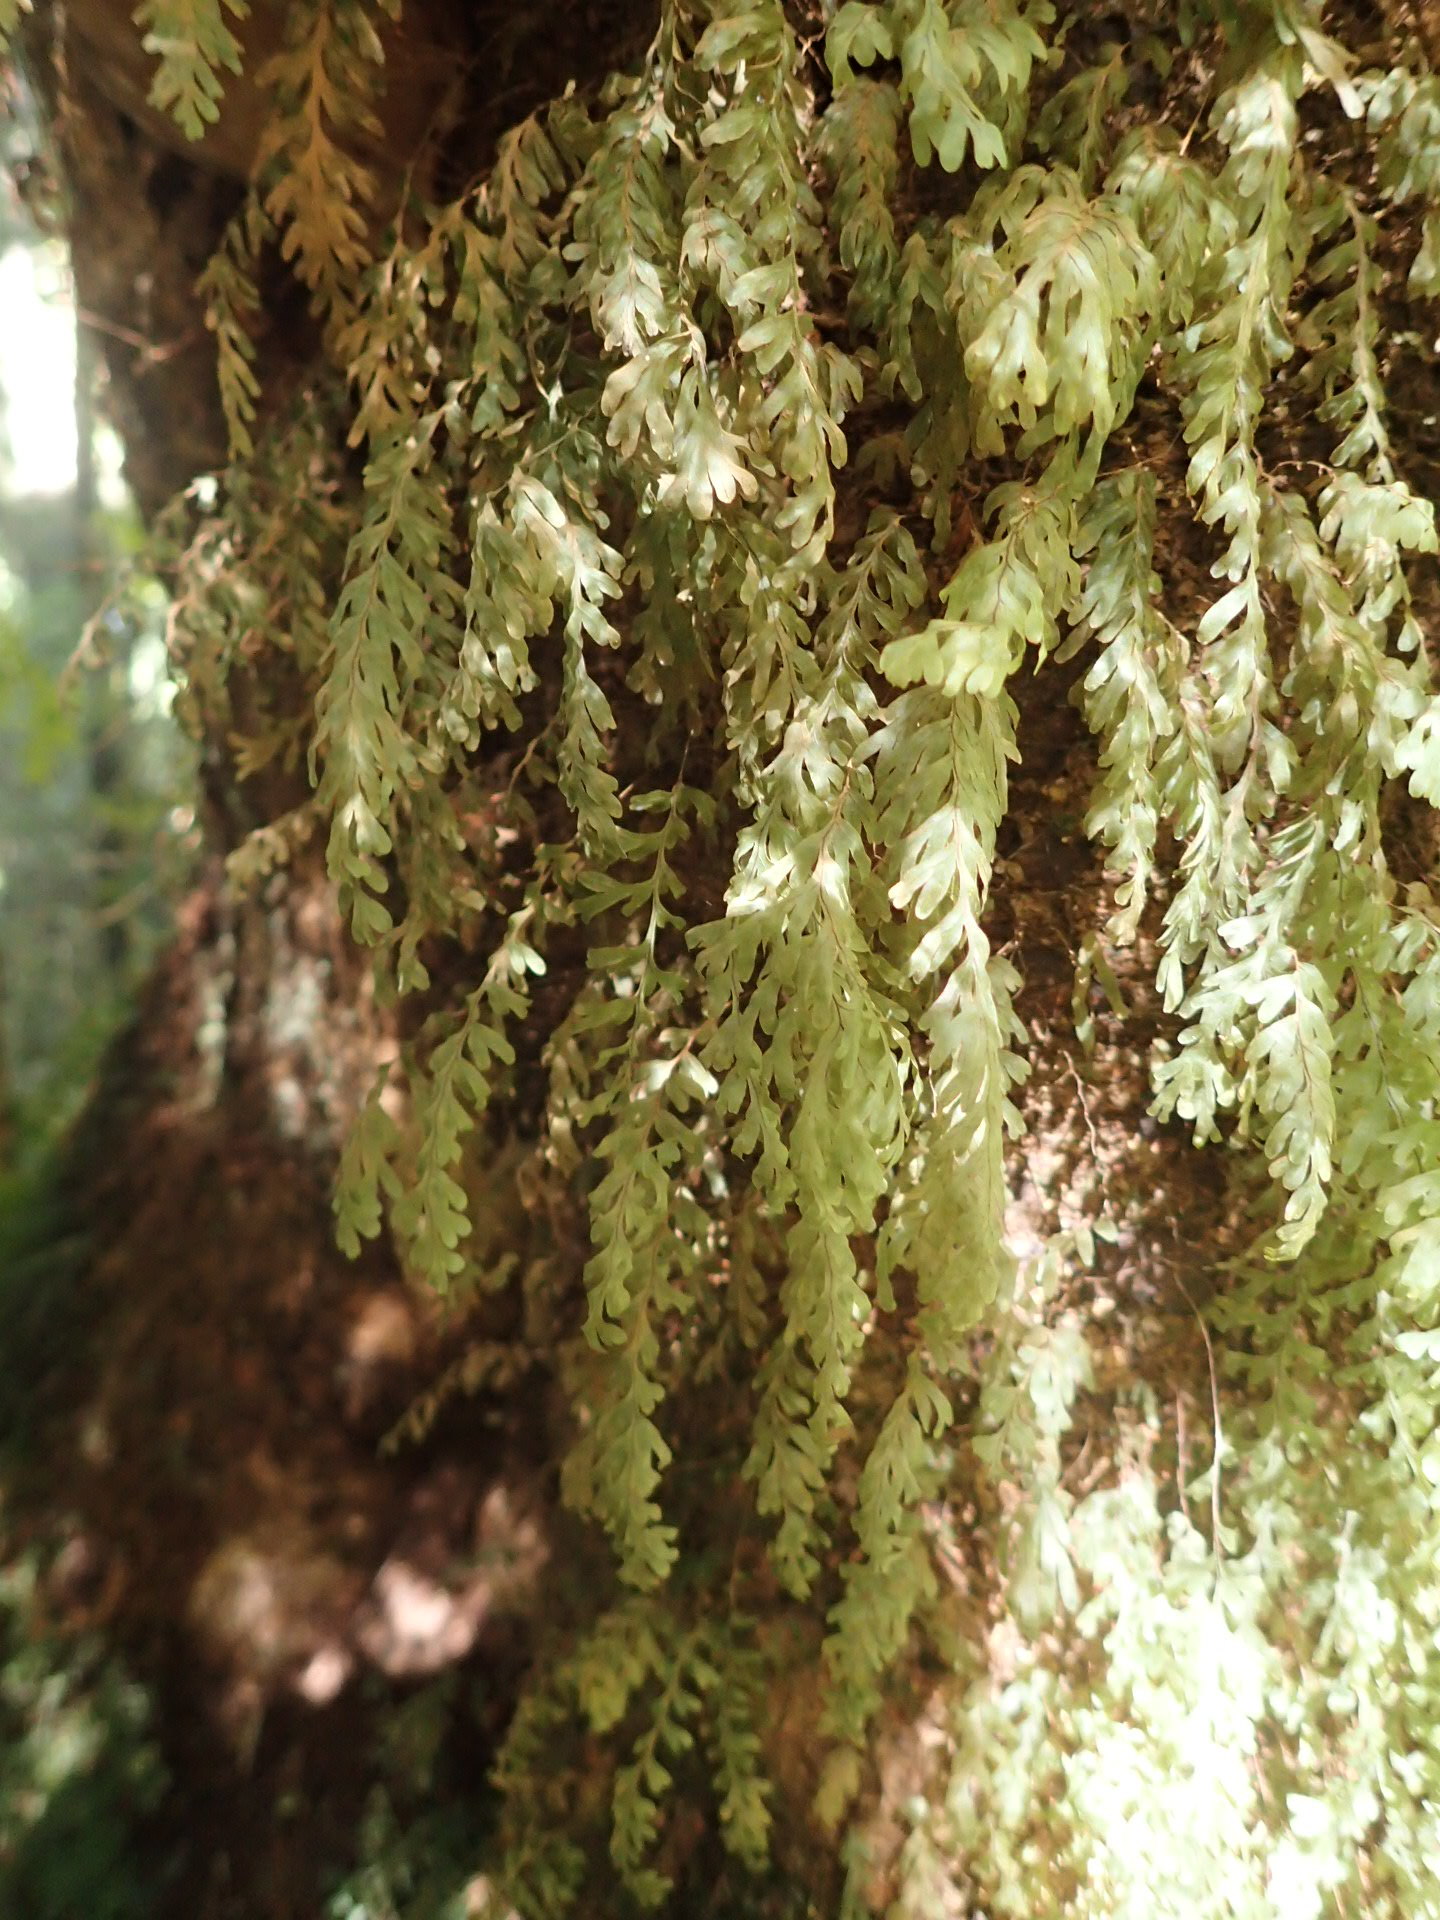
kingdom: Plantae
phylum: Tracheophyta
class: Polypodiopsida
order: Hymenophyllales
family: Hymenophyllaceae
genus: Hymenophyllum
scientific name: Hymenophyllum rarum
